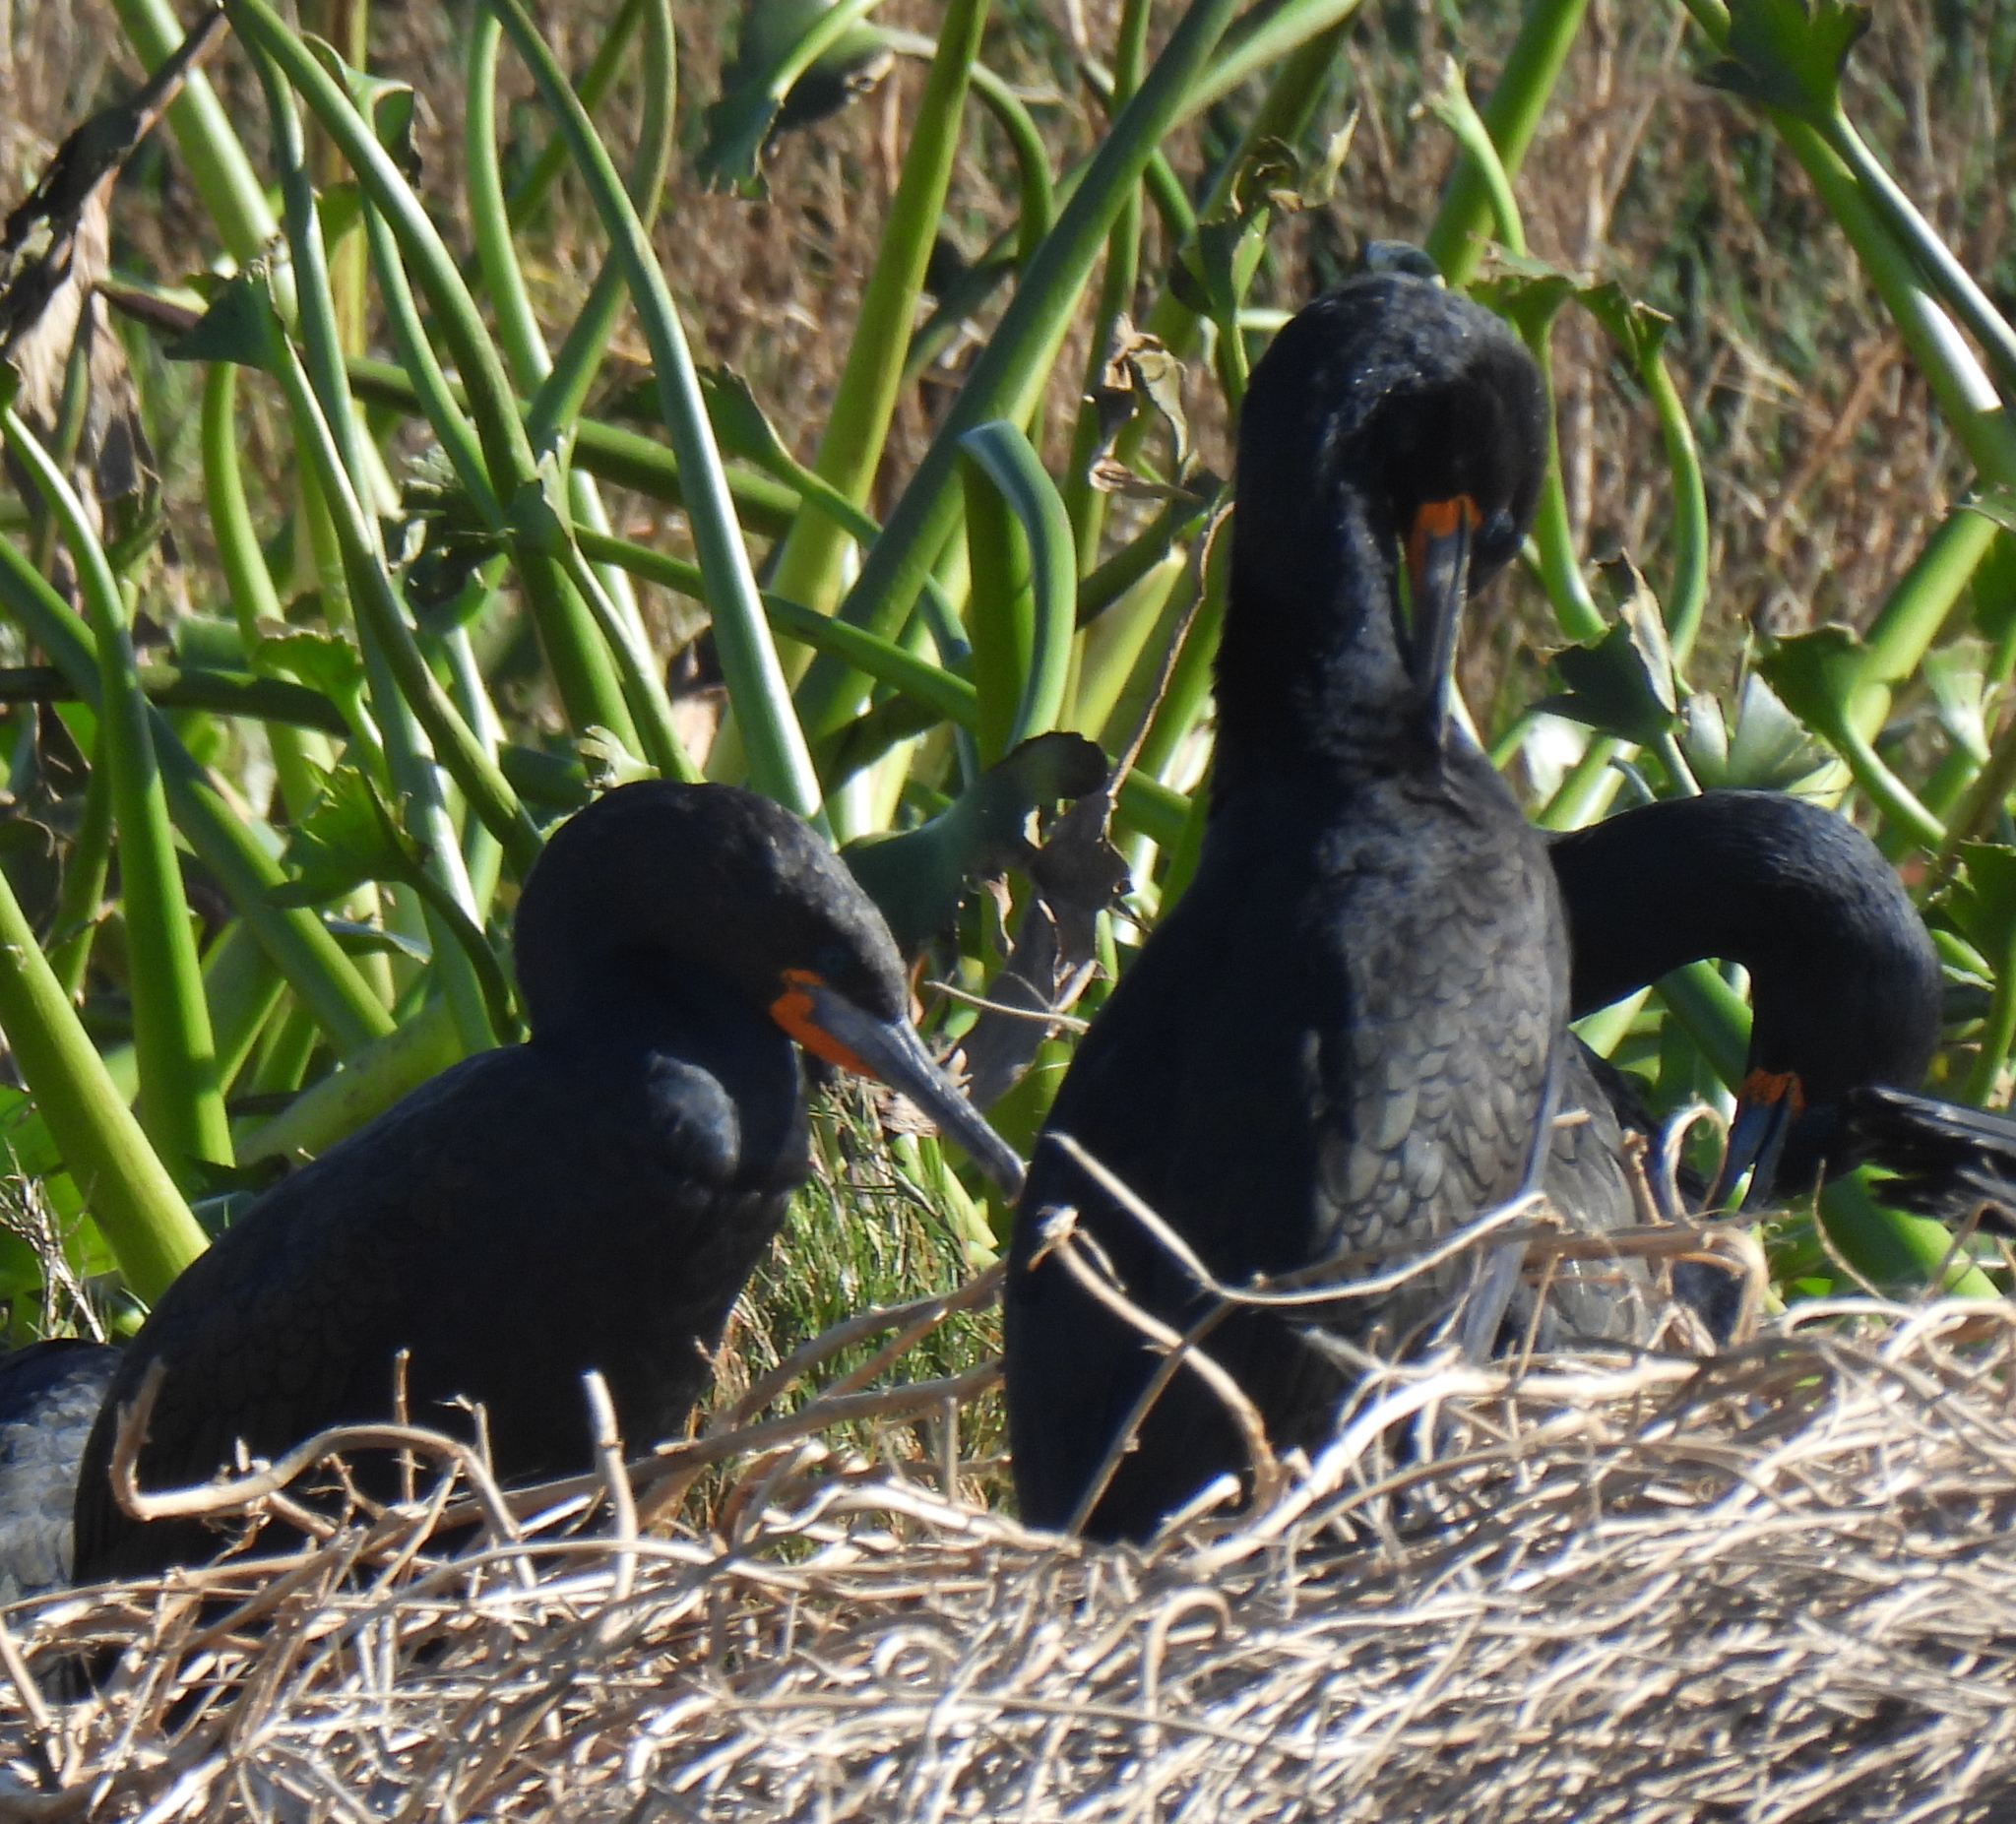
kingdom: Animalia
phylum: Chordata
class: Aves
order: Suliformes
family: Phalacrocoracidae
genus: Phalacrocorax
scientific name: Phalacrocorax capensis
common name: Cape cormorant
